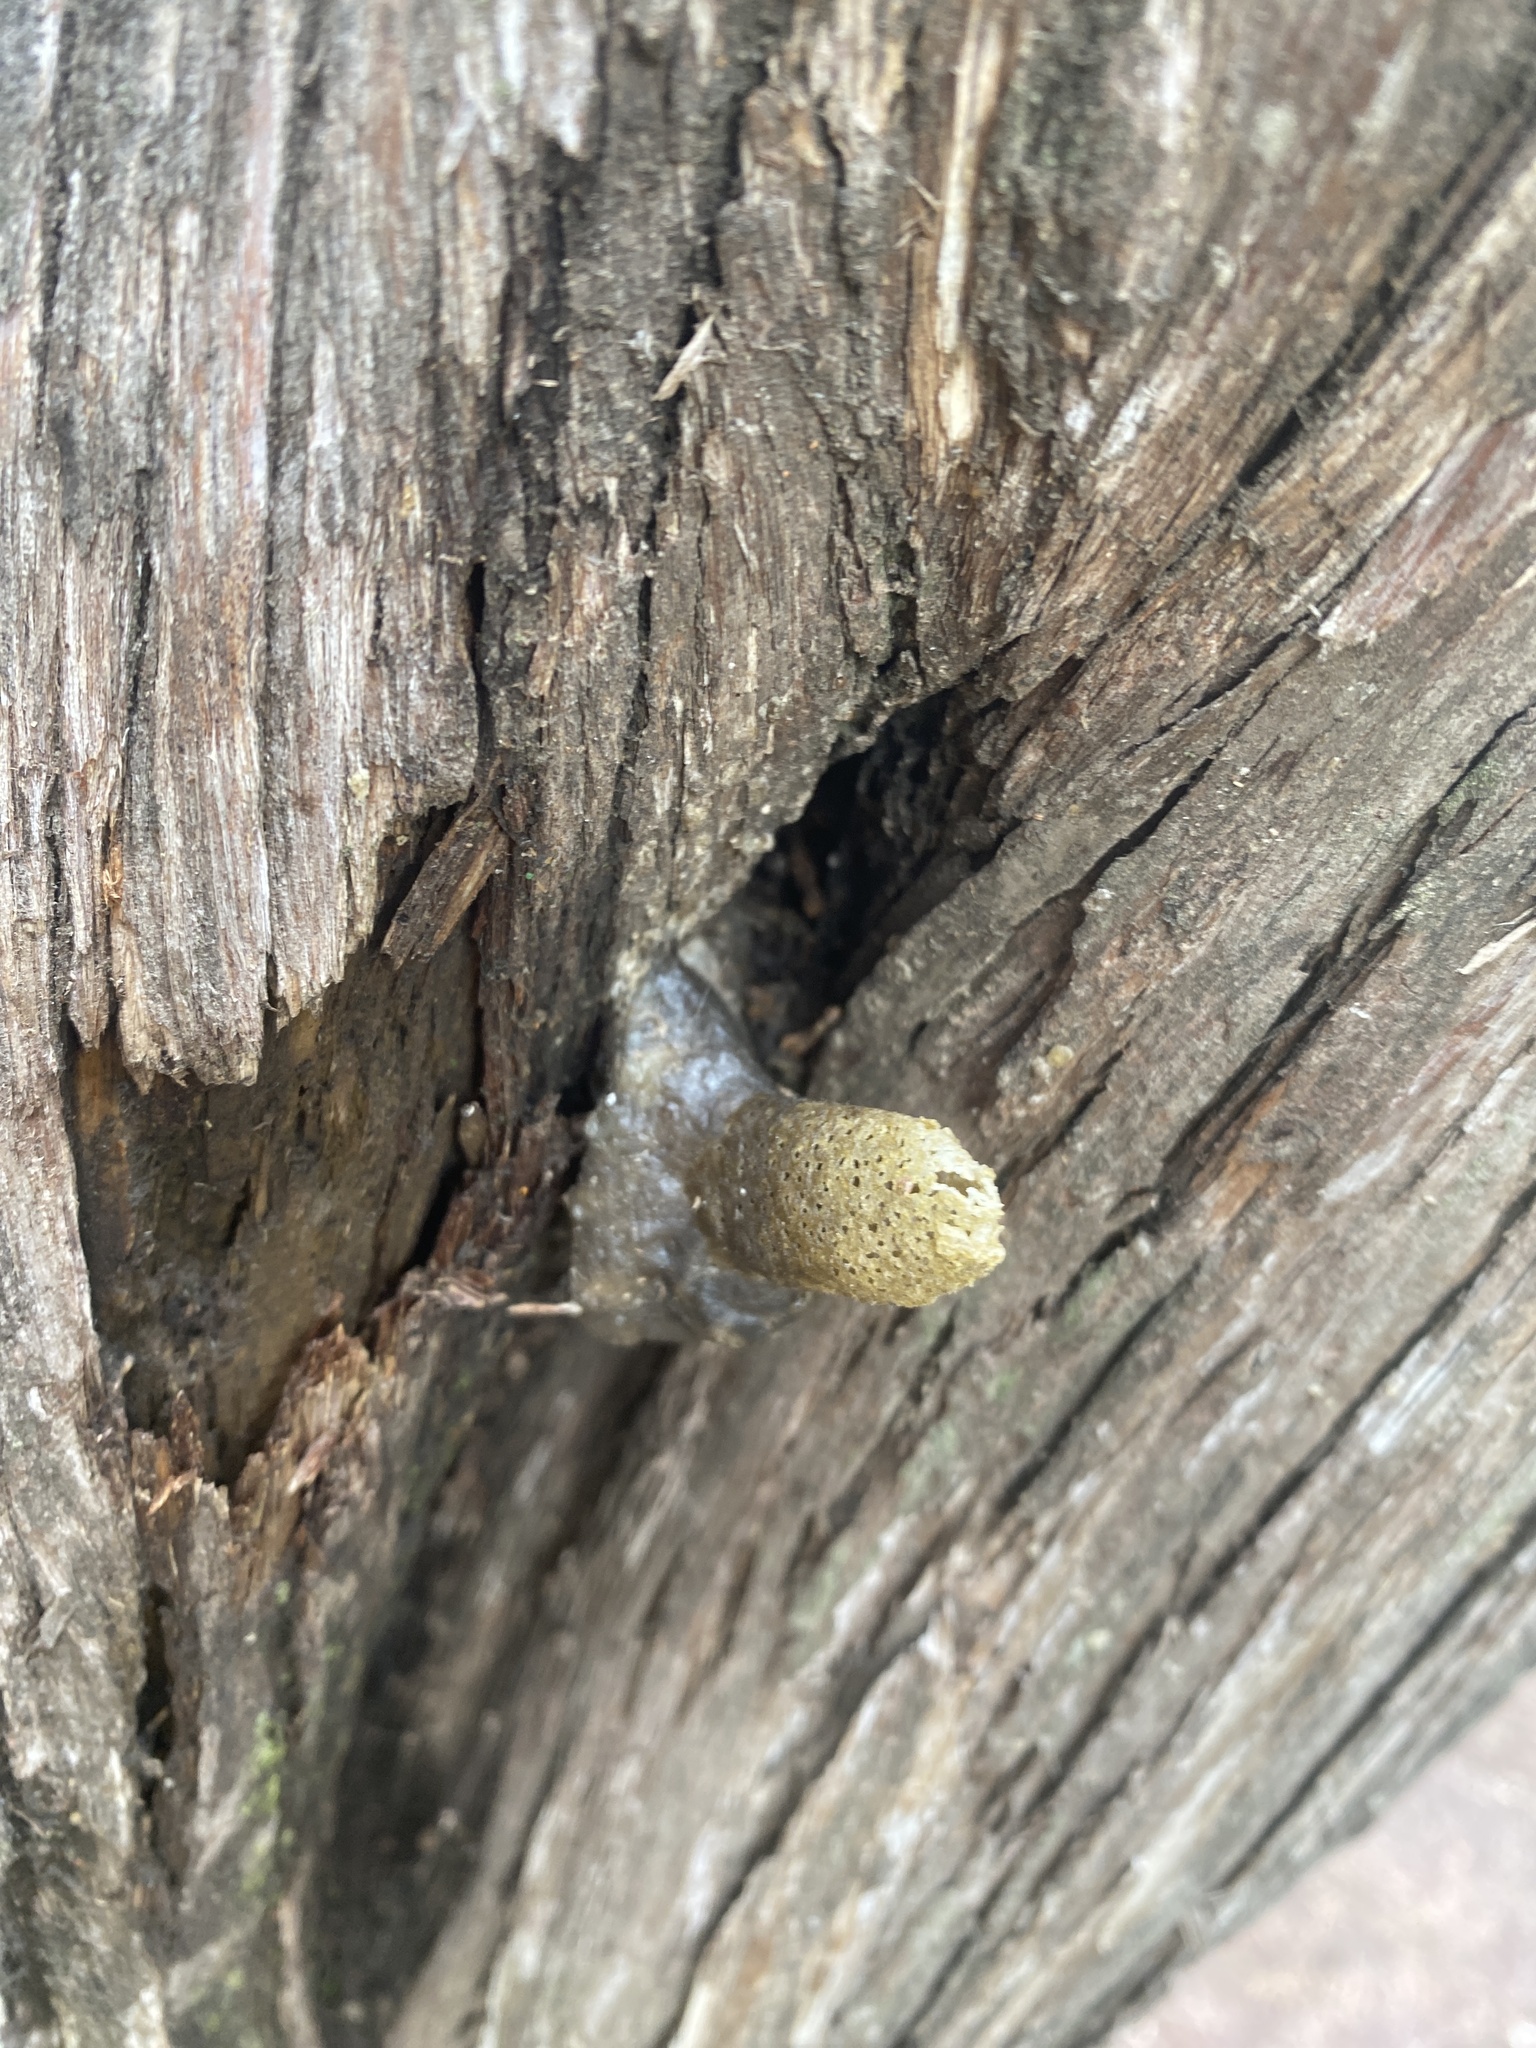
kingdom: Animalia
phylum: Arthropoda
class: Insecta
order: Hymenoptera
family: Apidae
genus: Tetragonisca
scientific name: Tetragonisca fiebrigi
